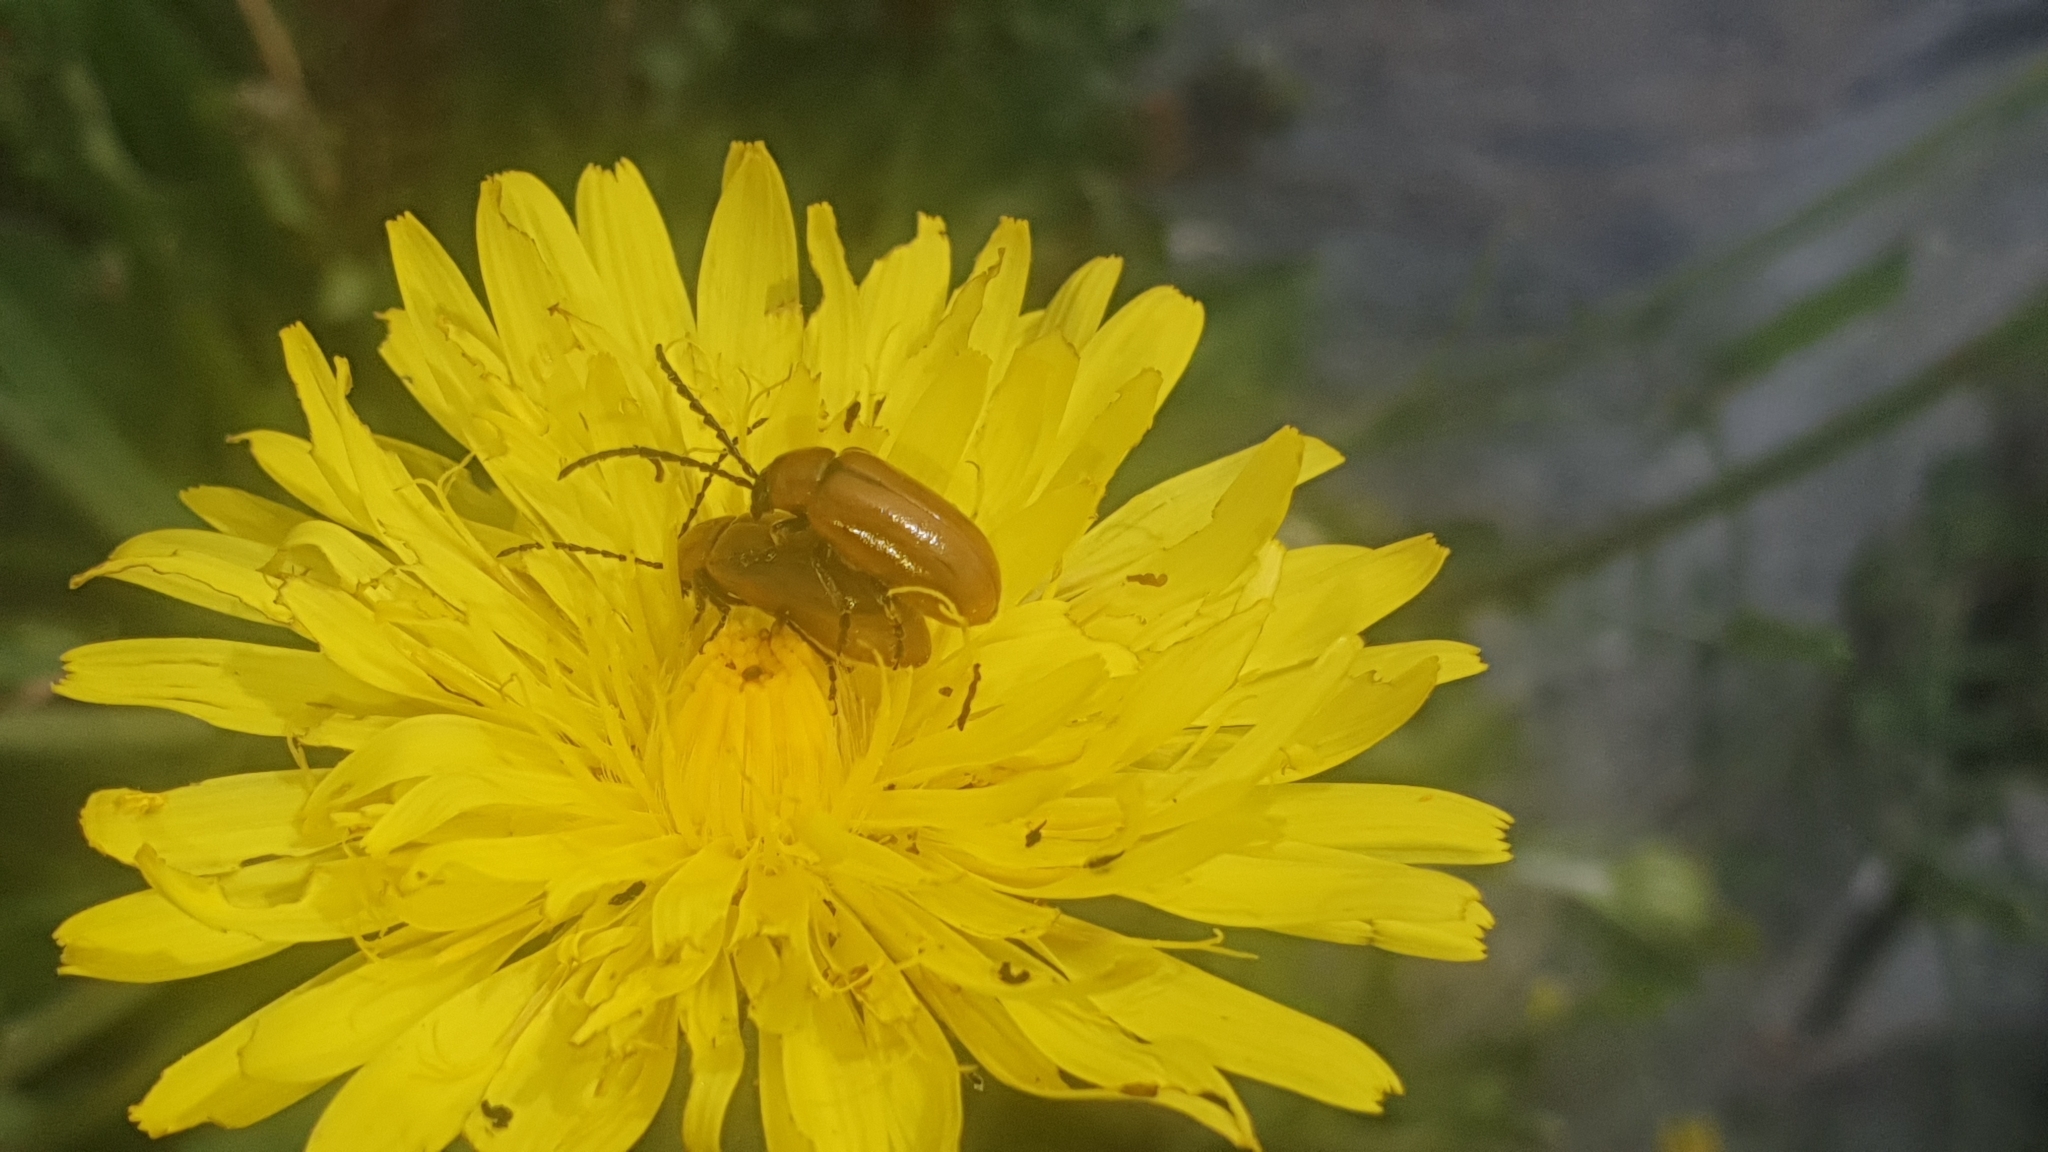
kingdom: Animalia
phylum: Arthropoda
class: Insecta
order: Coleoptera
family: Chrysomelidae
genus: Exosoma
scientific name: Exosoma lusitanicum
